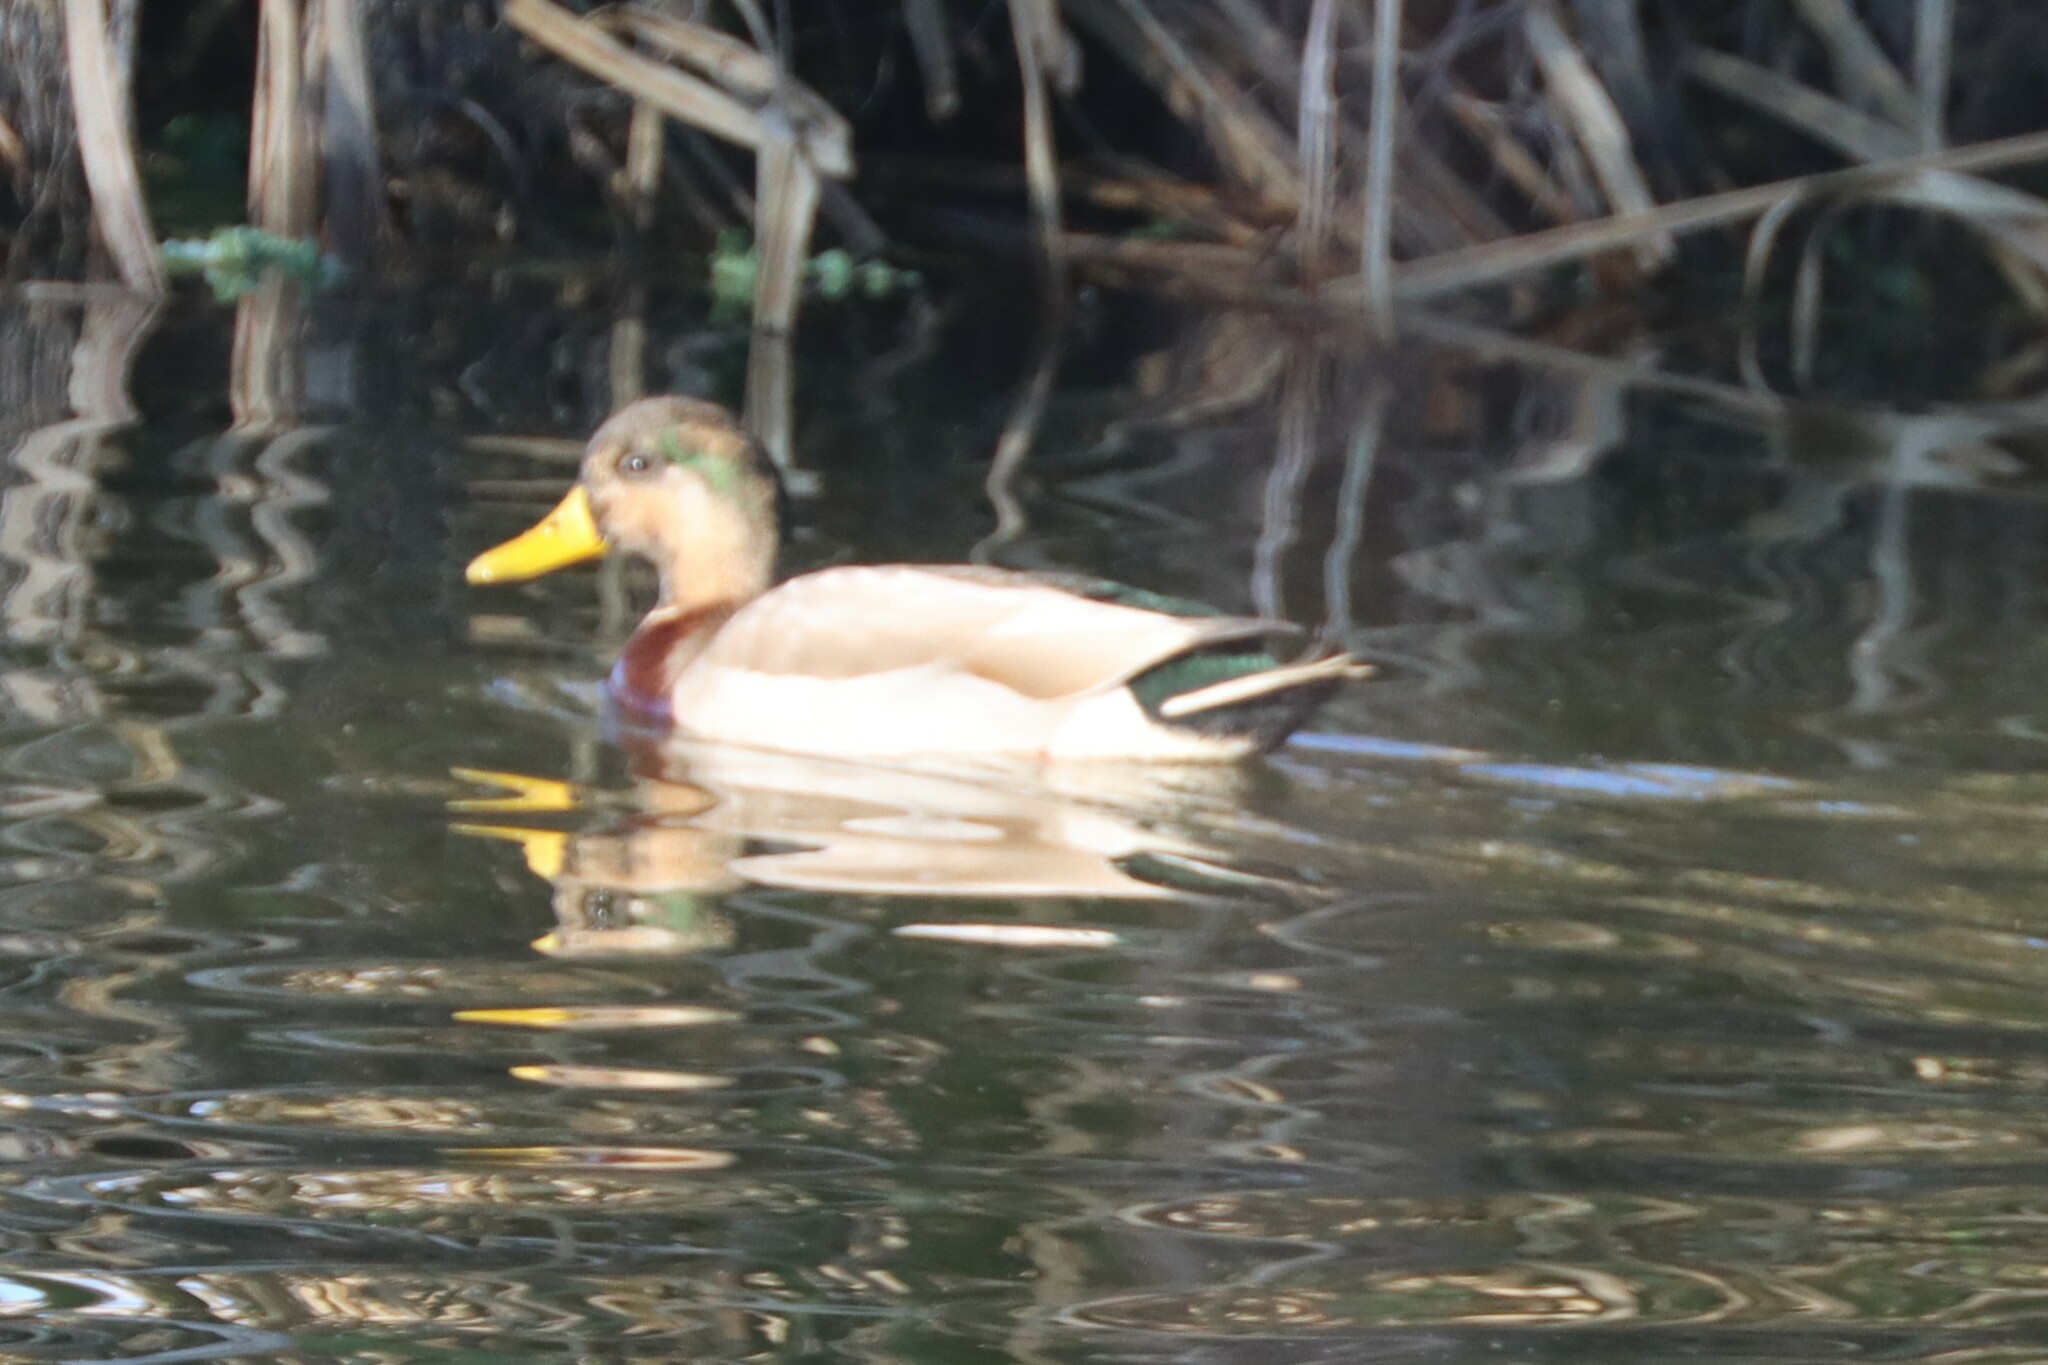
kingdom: Animalia
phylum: Chordata
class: Aves
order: Anseriformes
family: Anatidae
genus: Anas
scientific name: Anas platyrhynchos
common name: Mallard
